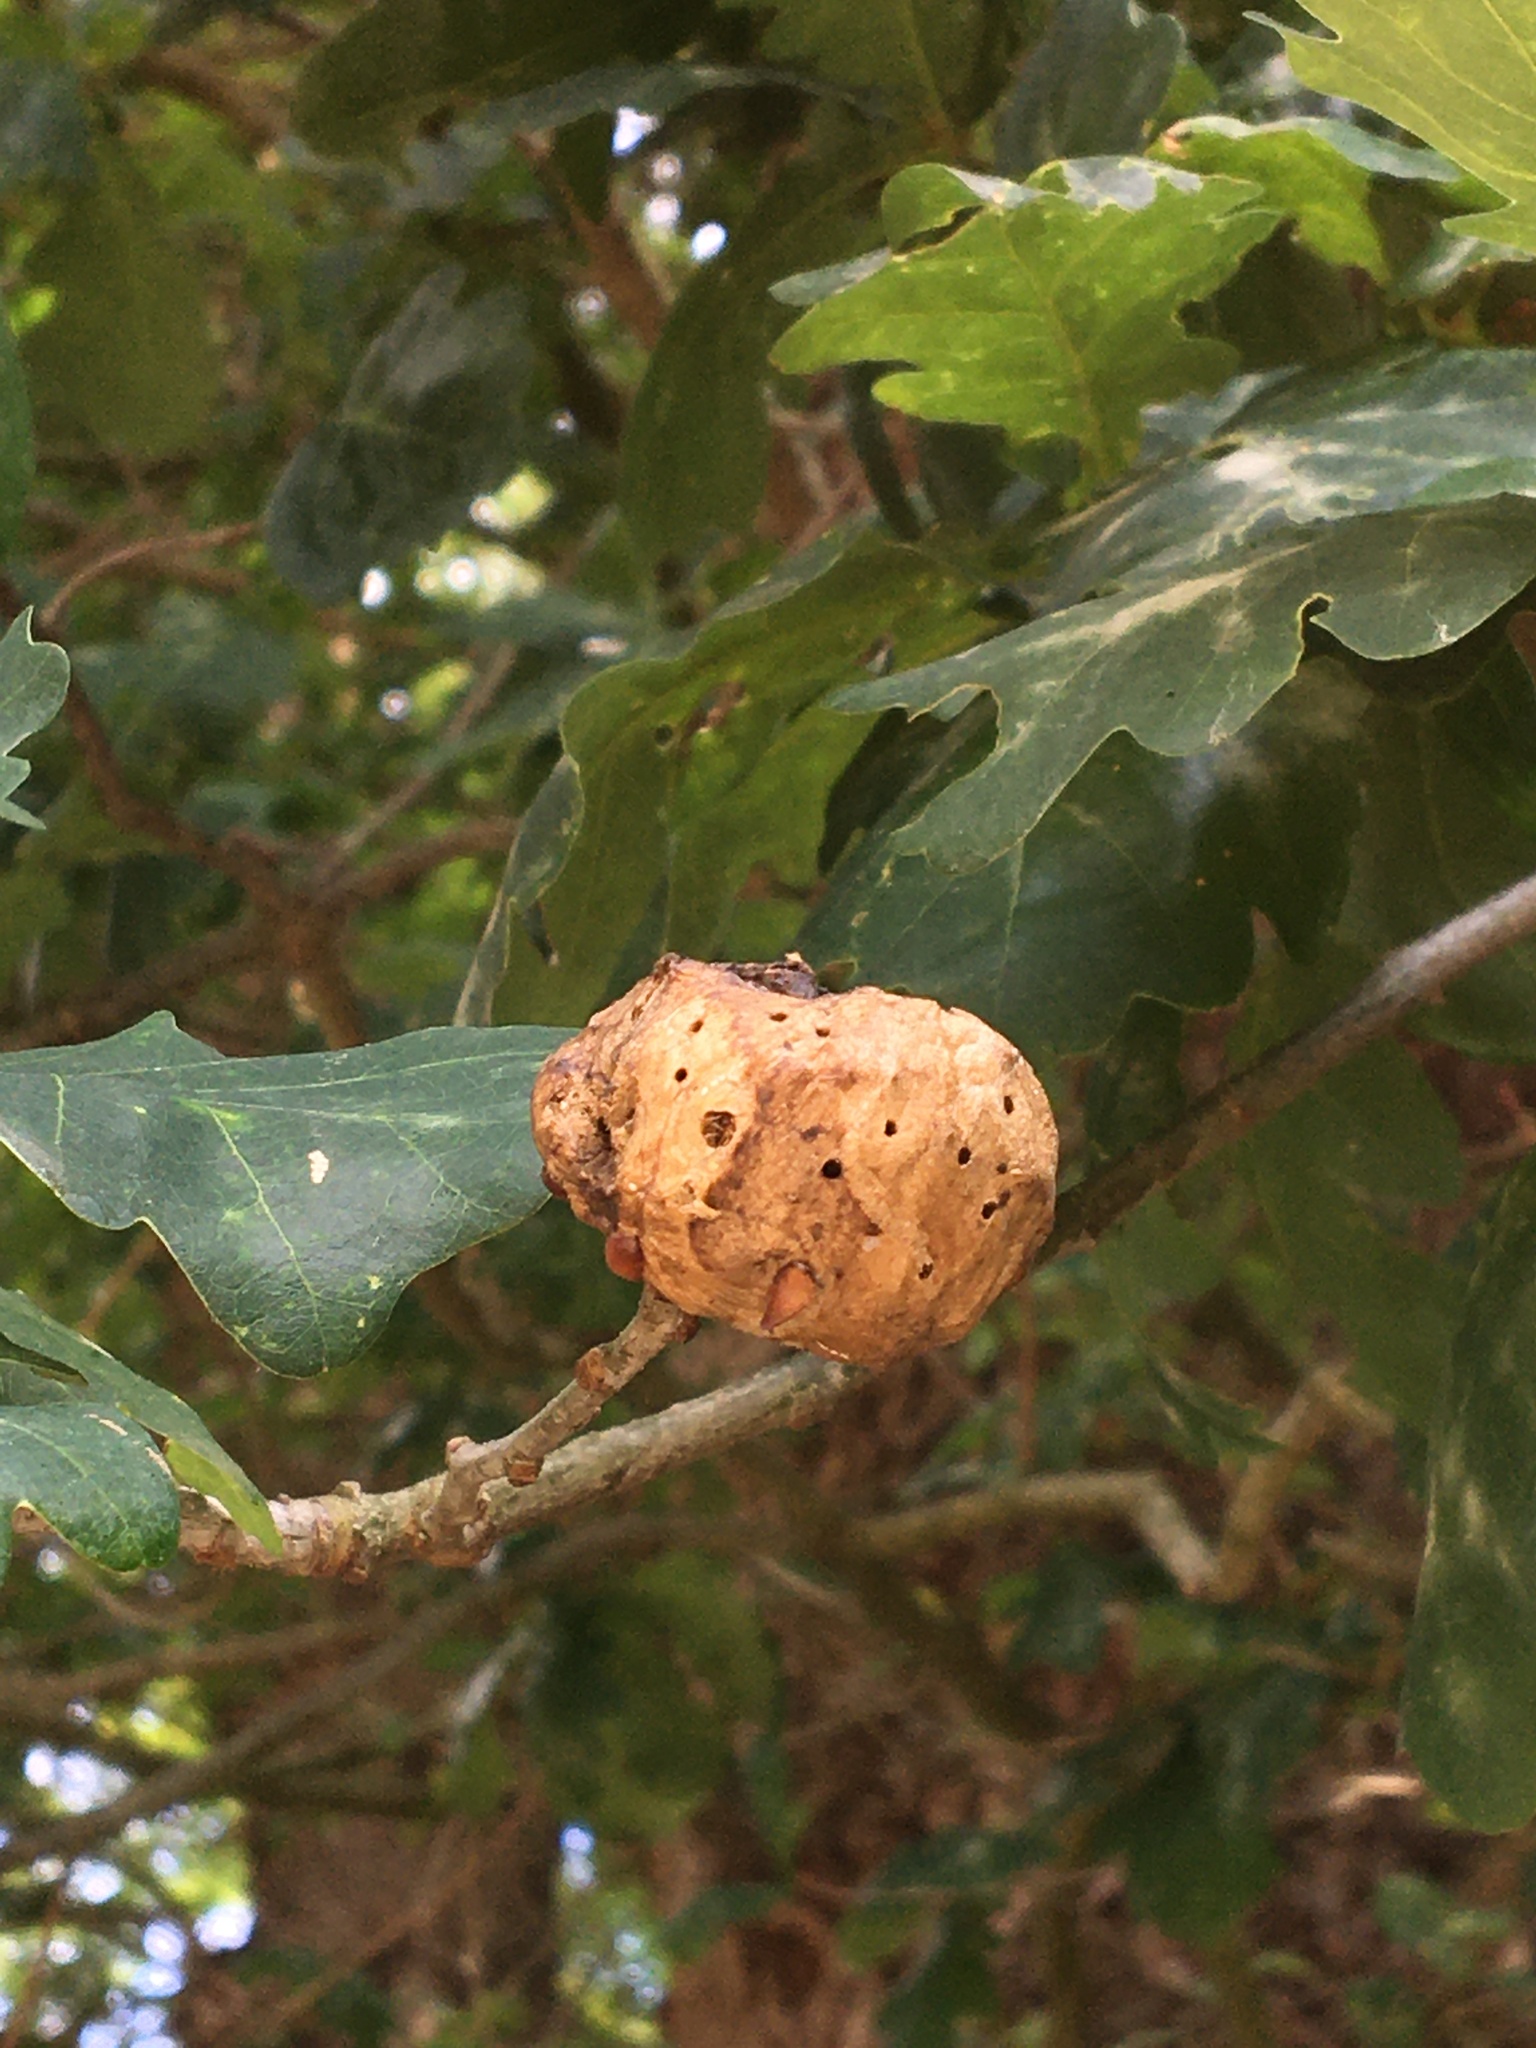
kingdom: Animalia
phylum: Arthropoda
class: Insecta
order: Hymenoptera
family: Cynipidae
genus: Biorhiza
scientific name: Biorhiza pallida
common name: Oak apple
